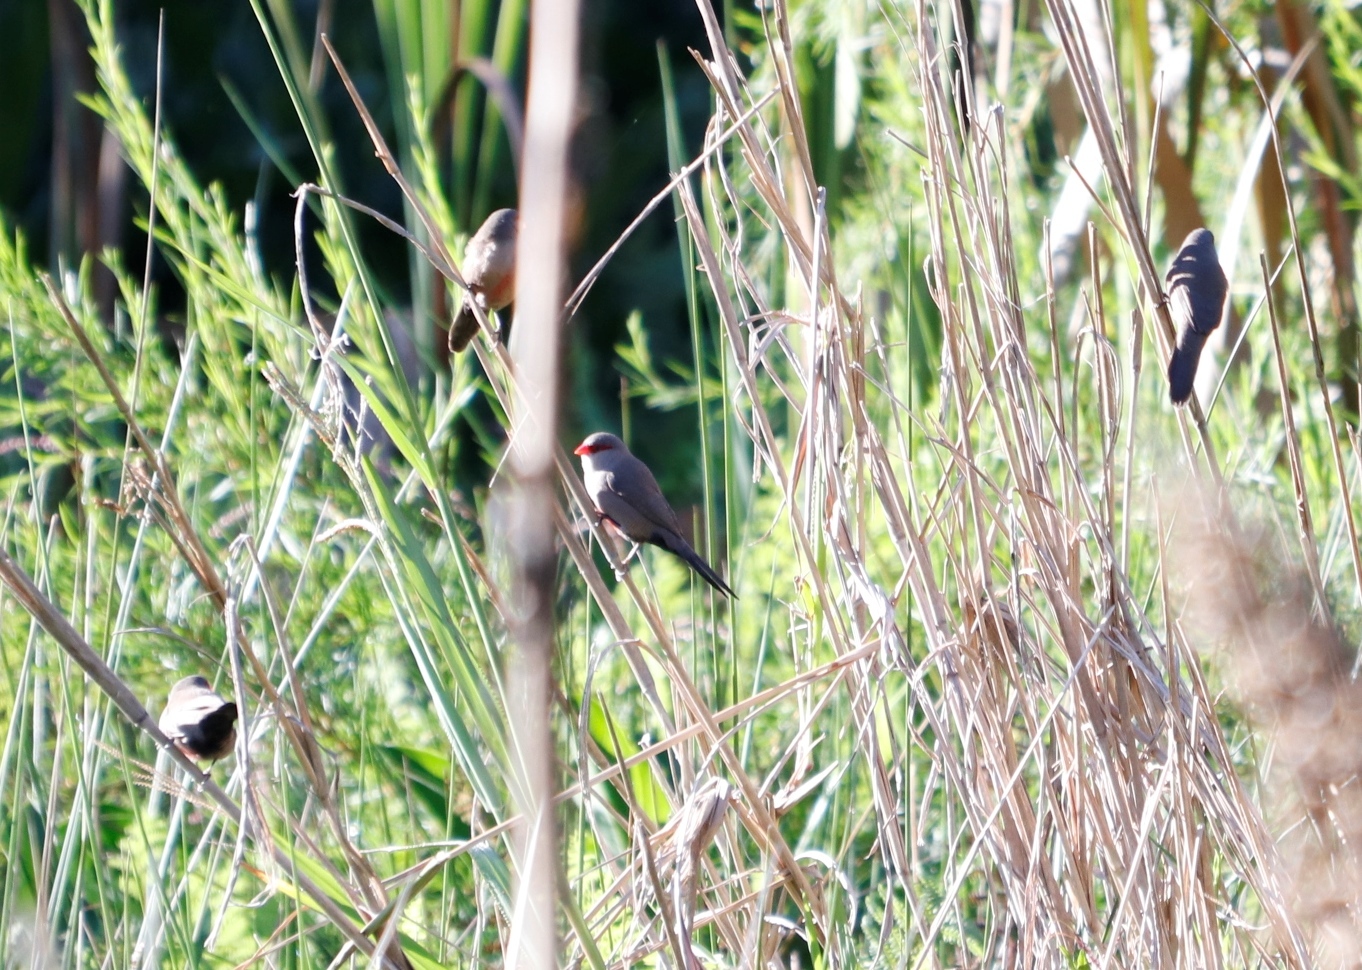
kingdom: Animalia
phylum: Chordata
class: Aves
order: Passeriformes
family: Estrildidae
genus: Estrilda
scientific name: Estrilda astrild
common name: Common waxbill
